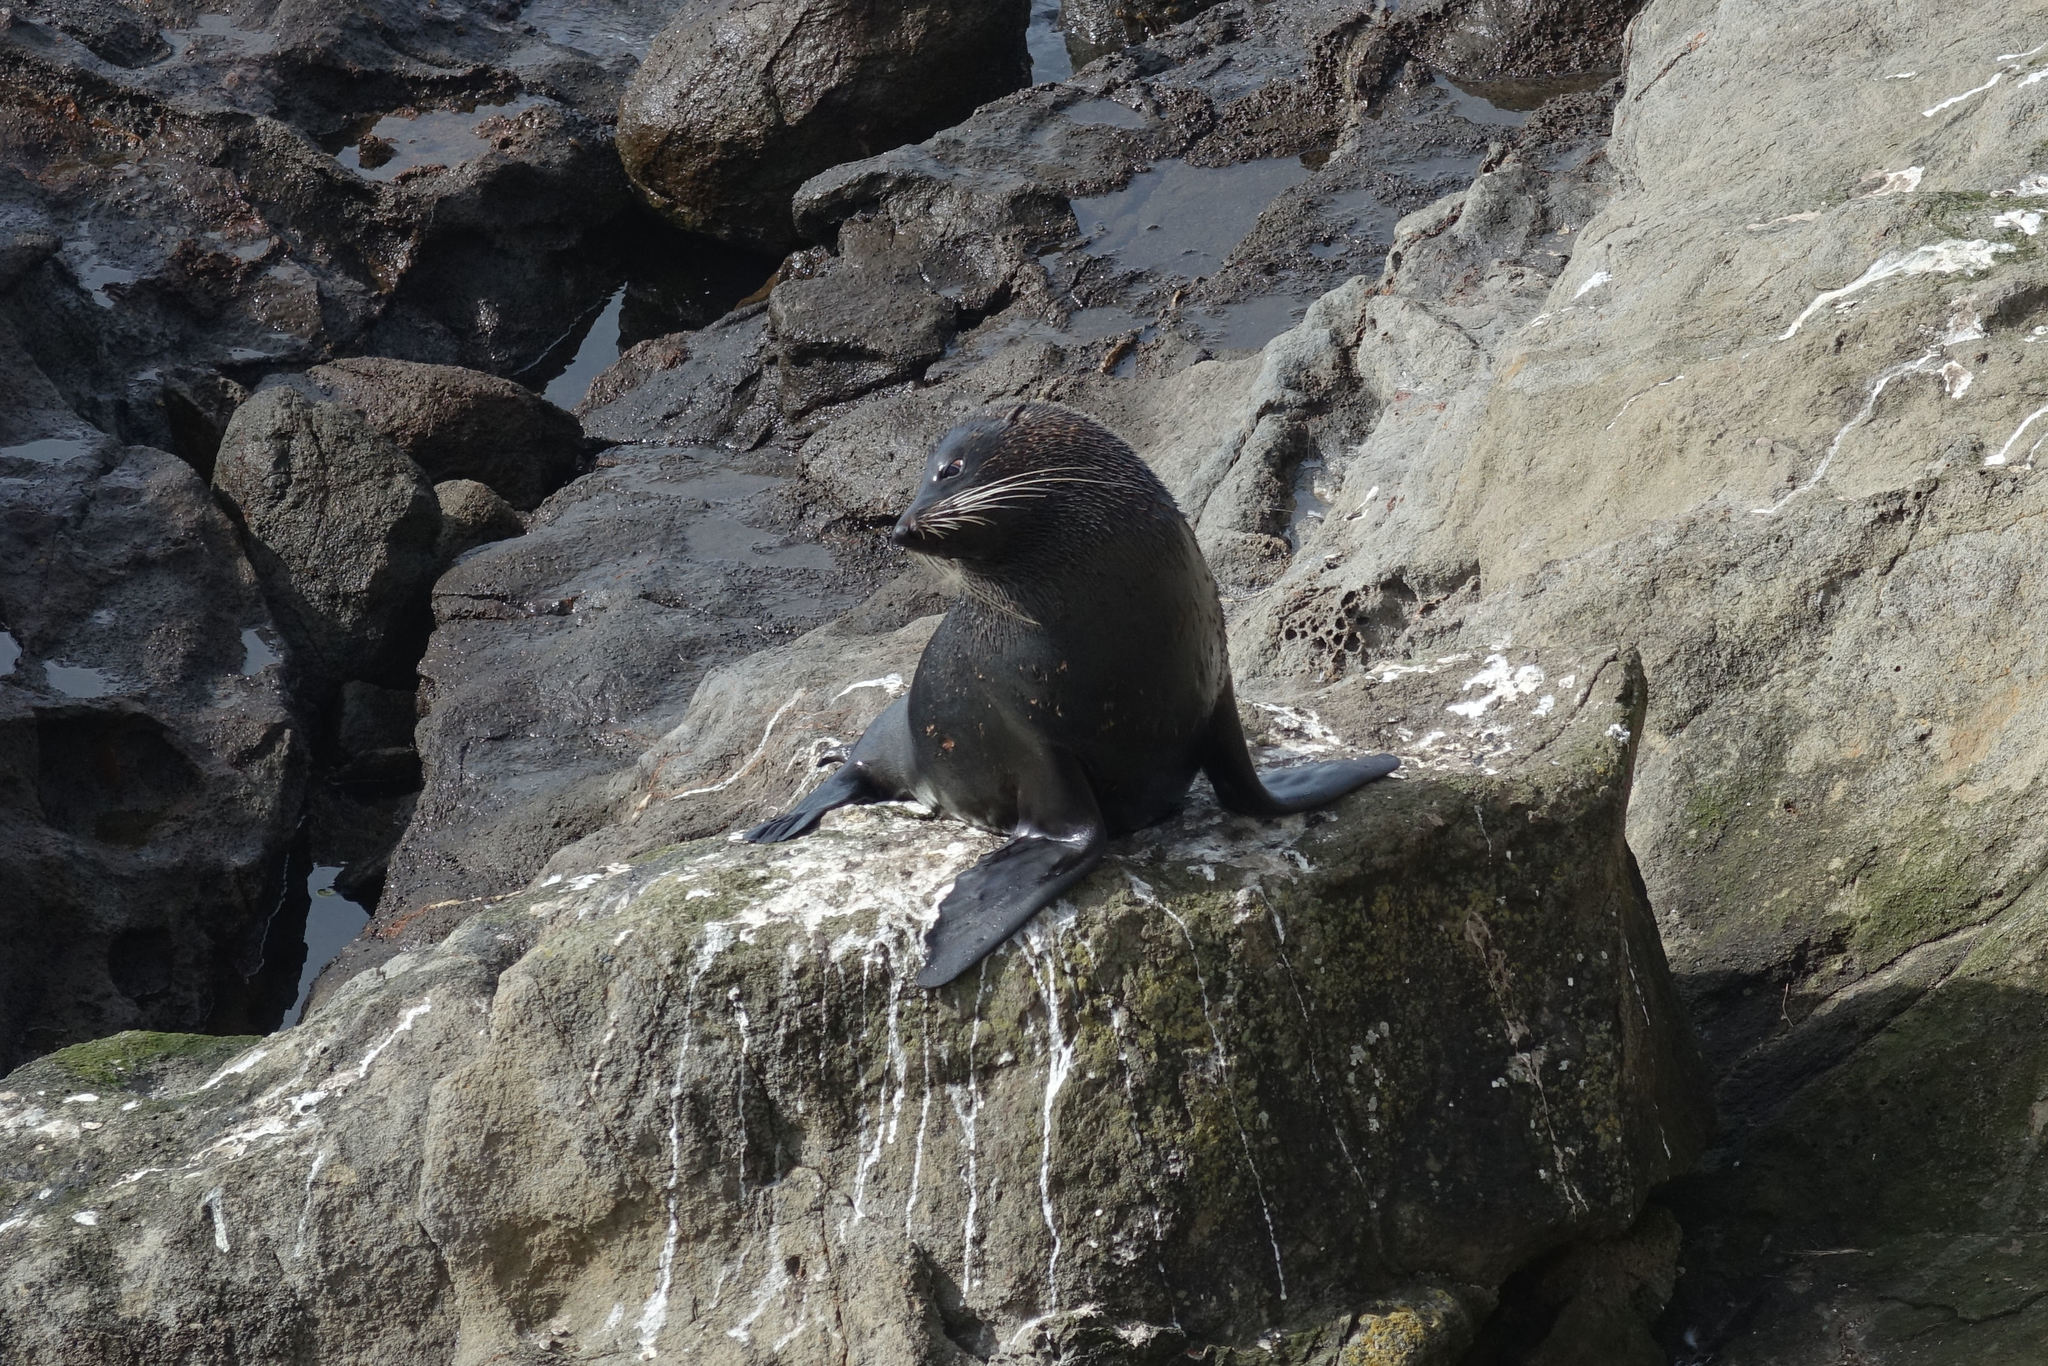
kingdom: Animalia
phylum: Chordata
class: Mammalia
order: Carnivora
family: Otariidae
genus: Arctocephalus
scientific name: Arctocephalus forsteri
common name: New zealand fur seal
